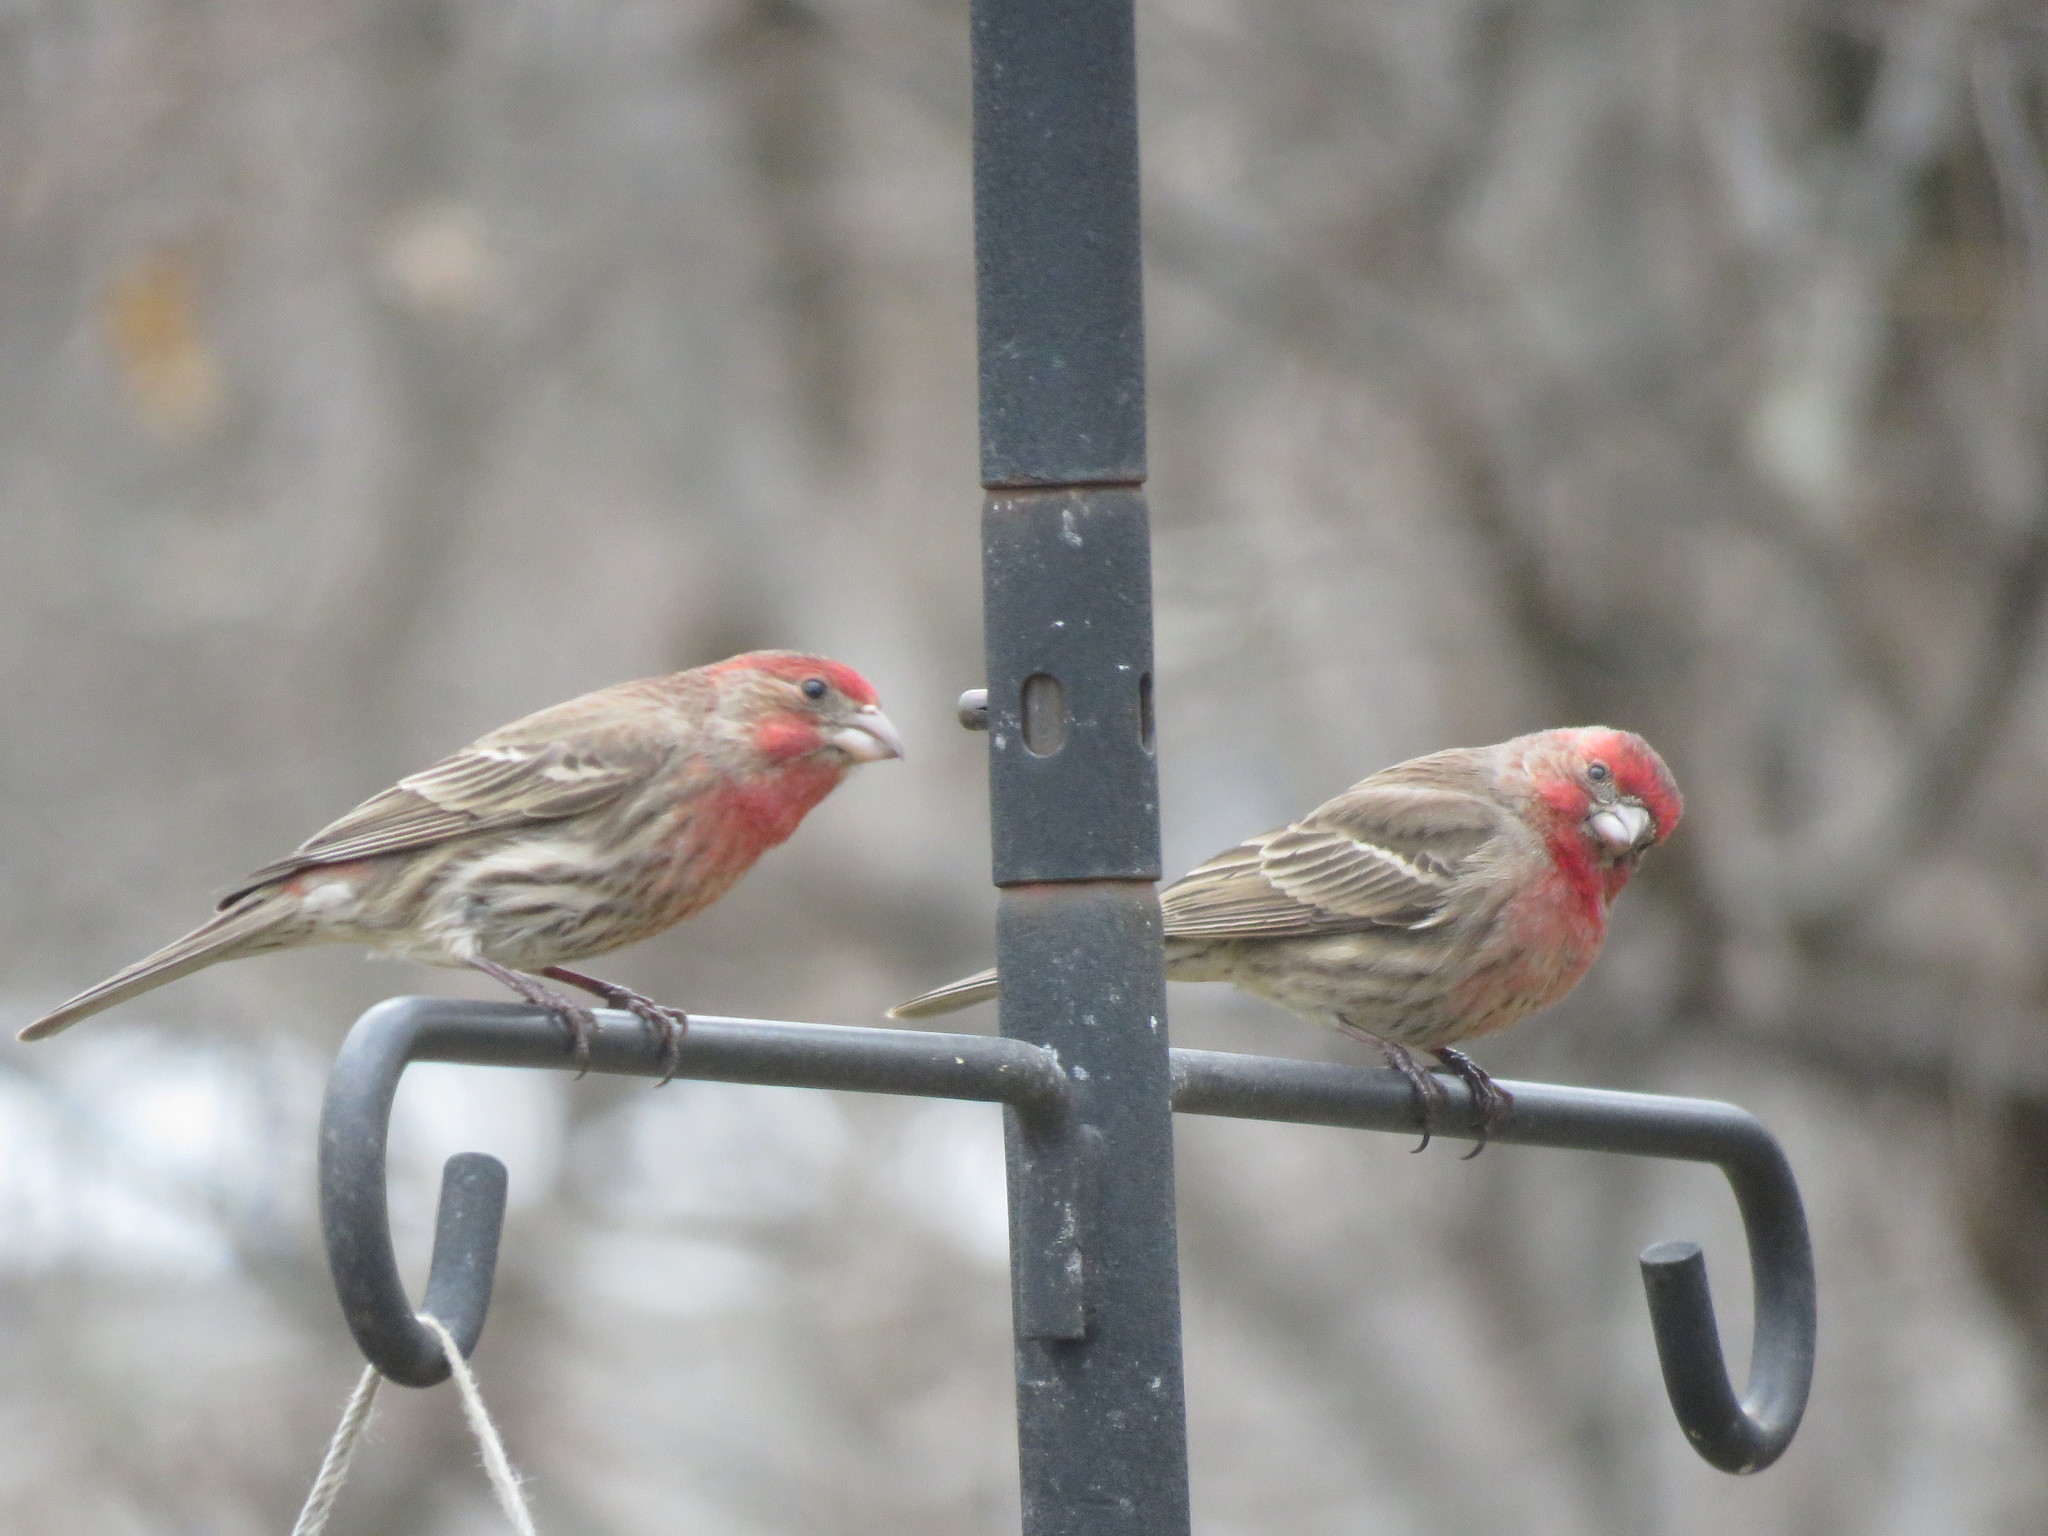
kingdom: Animalia
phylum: Chordata
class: Aves
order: Passeriformes
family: Fringillidae
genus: Haemorhous
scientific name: Haemorhous mexicanus
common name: House finch
